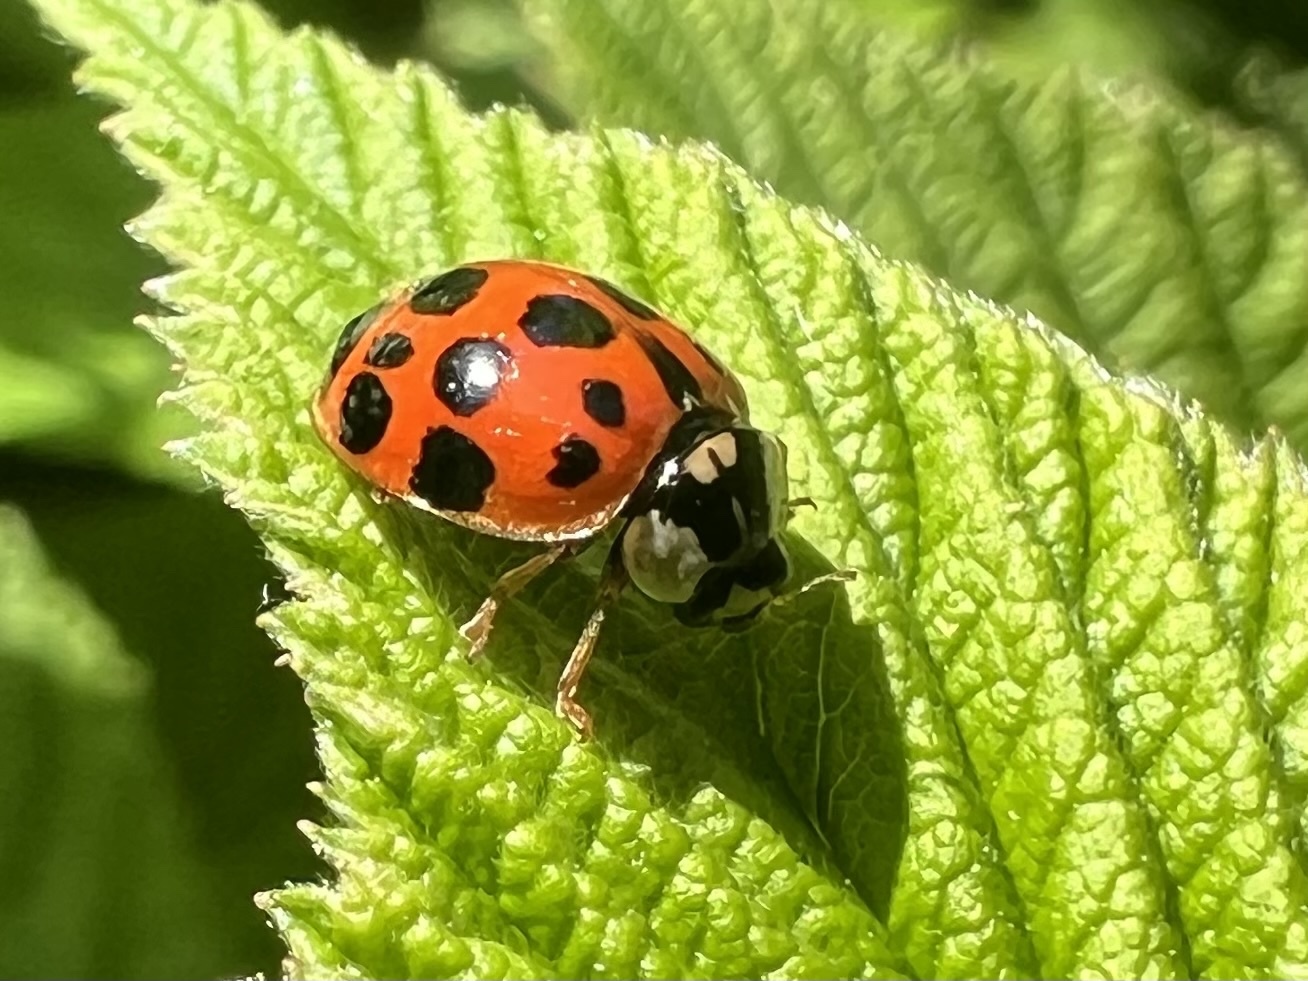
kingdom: Animalia
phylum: Arthropoda
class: Insecta
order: Coleoptera
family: Coccinellidae
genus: Harmonia
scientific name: Harmonia axyridis
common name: Harlequin ladybird
